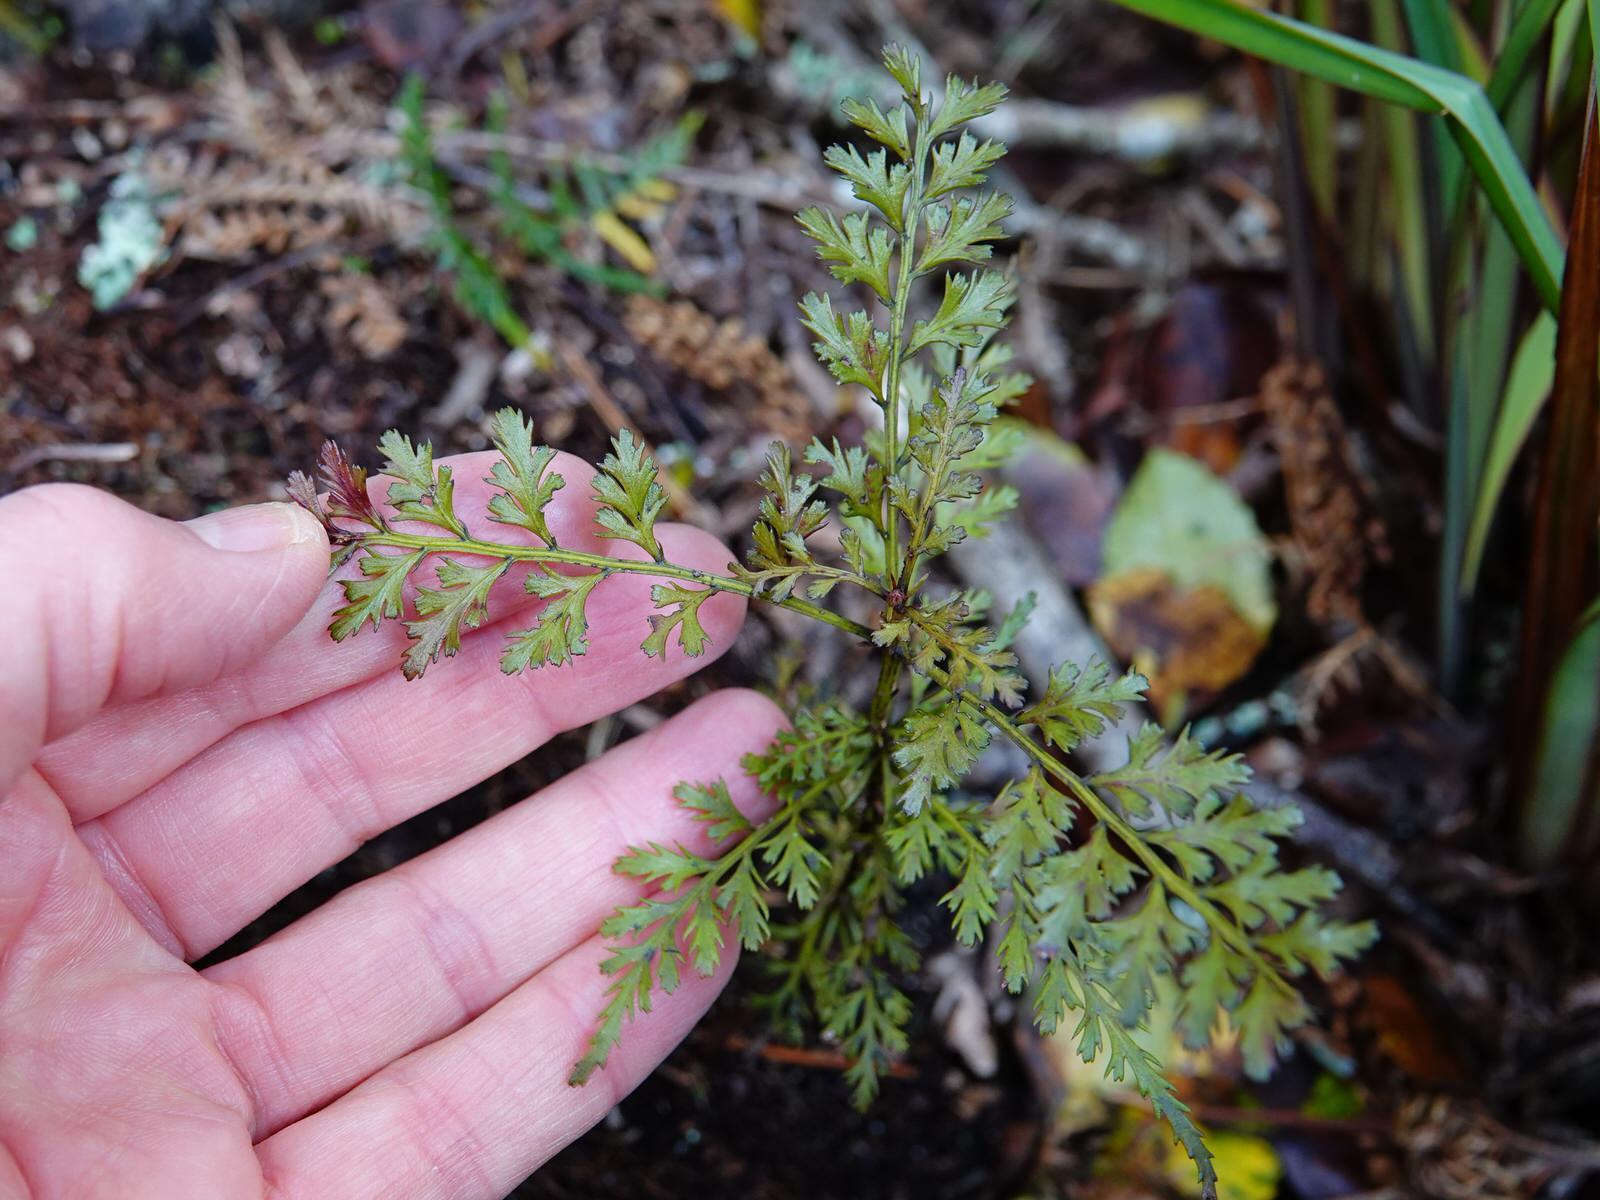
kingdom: Plantae
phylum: Tracheophyta
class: Pinopsida
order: Pinales
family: Phyllocladaceae
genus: Phyllocladus
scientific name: Phyllocladus trichomanoides
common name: Celery pine
